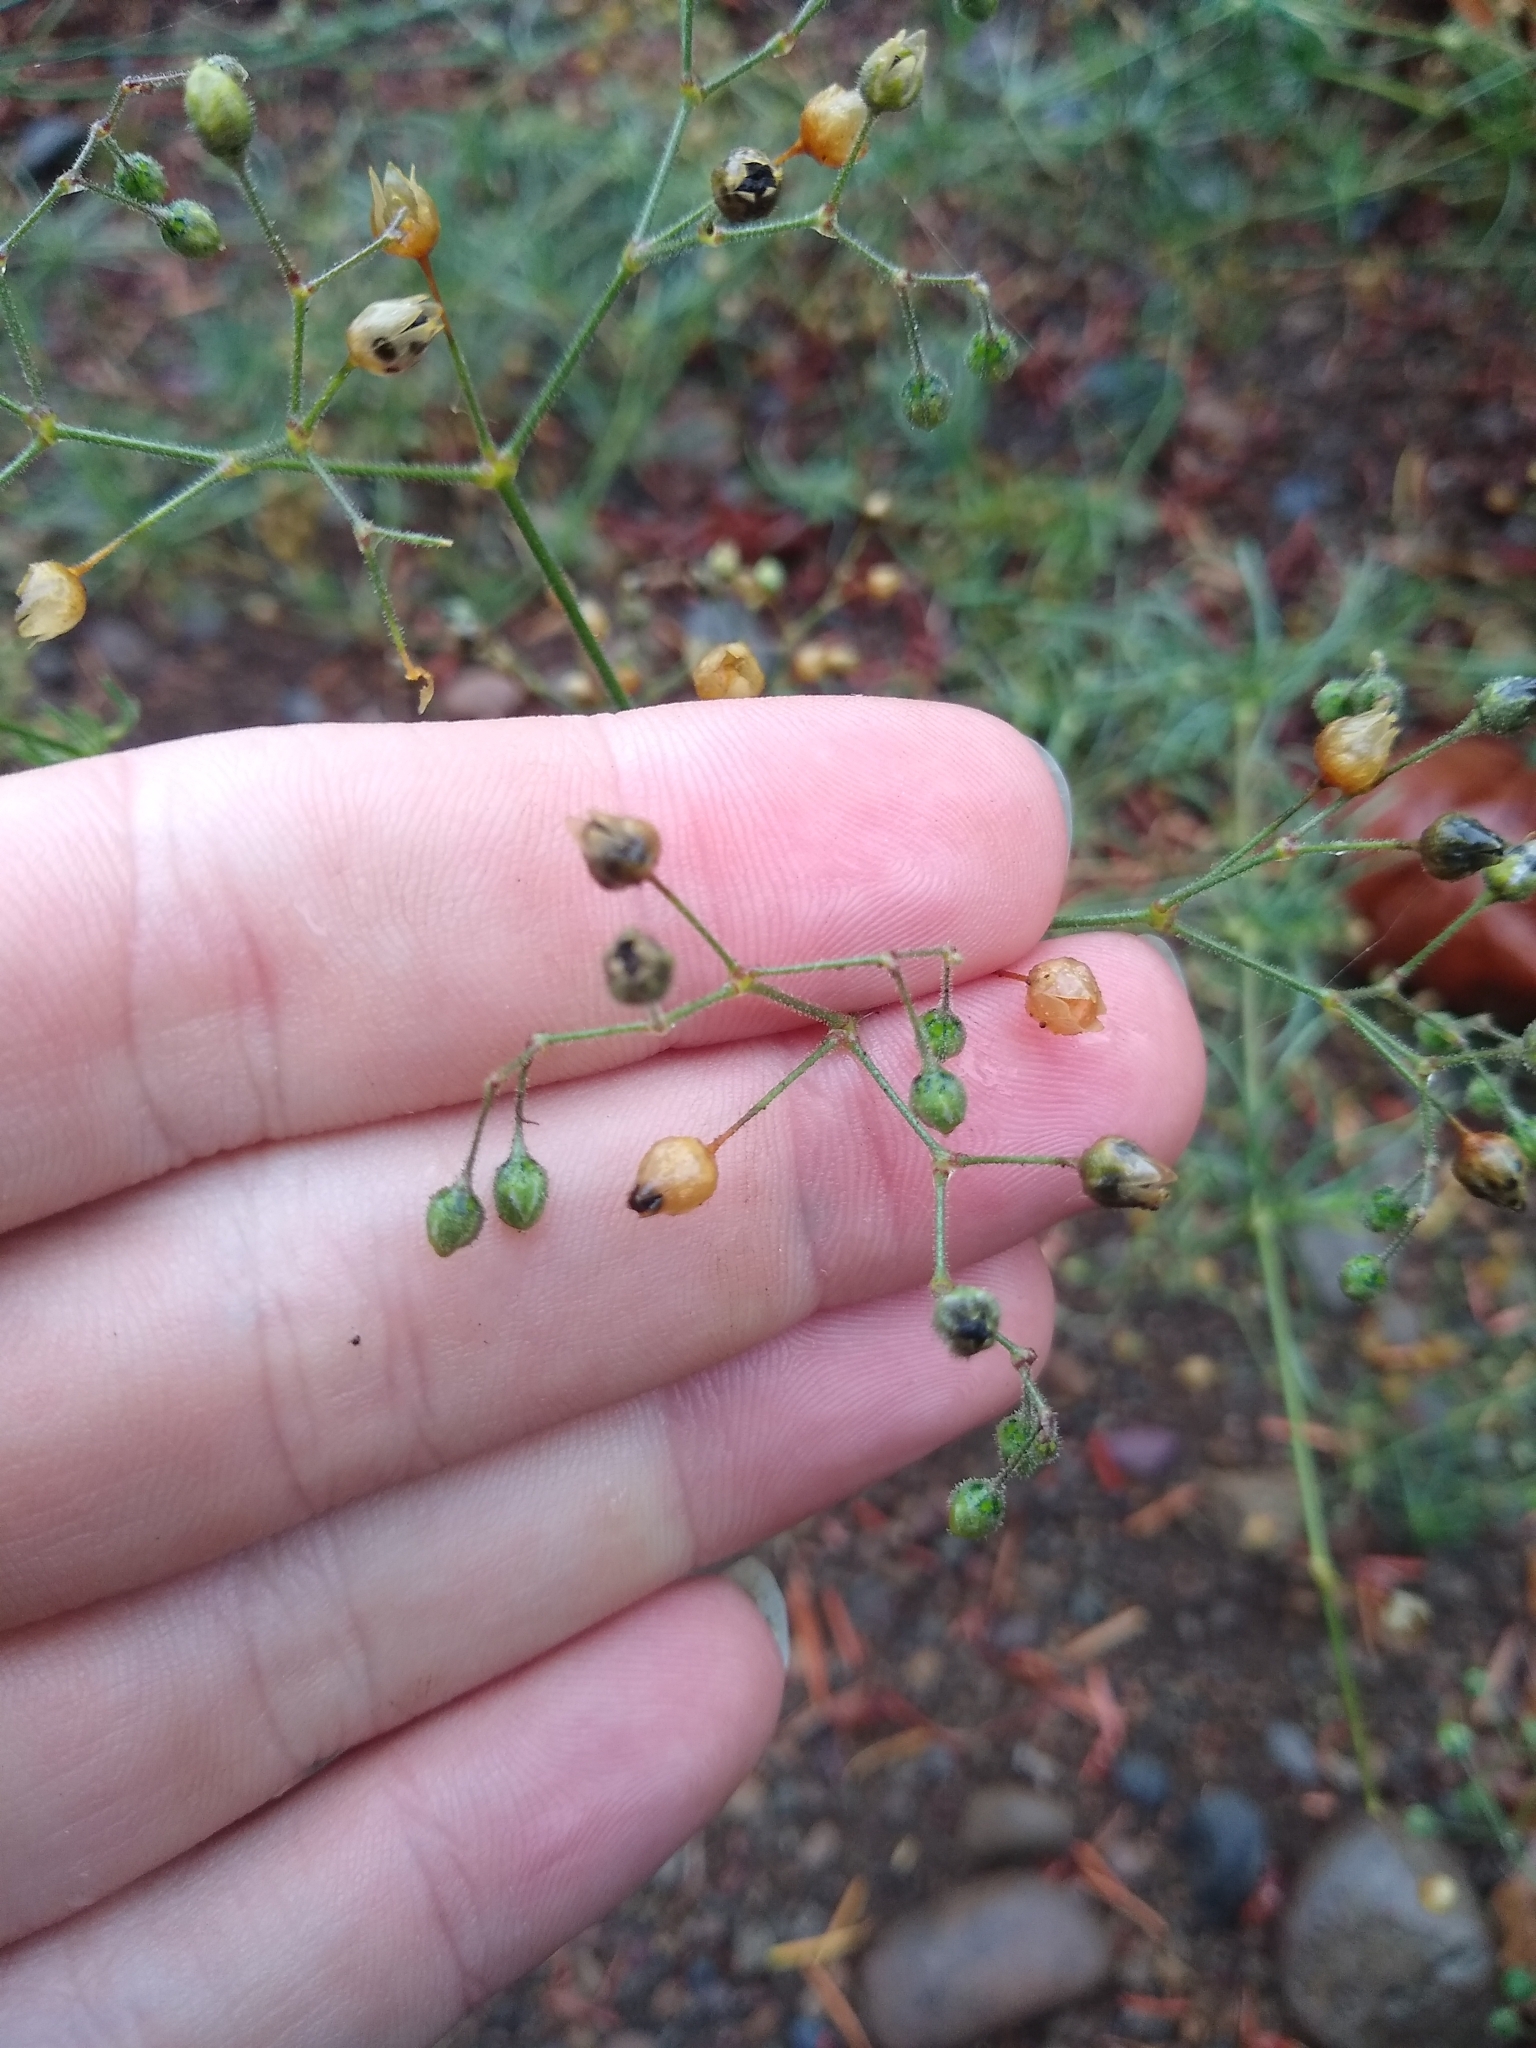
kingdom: Plantae
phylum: Tracheophyta
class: Magnoliopsida
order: Caryophyllales
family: Caryophyllaceae
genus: Spergula
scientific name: Spergula arvensis
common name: Corn spurrey
